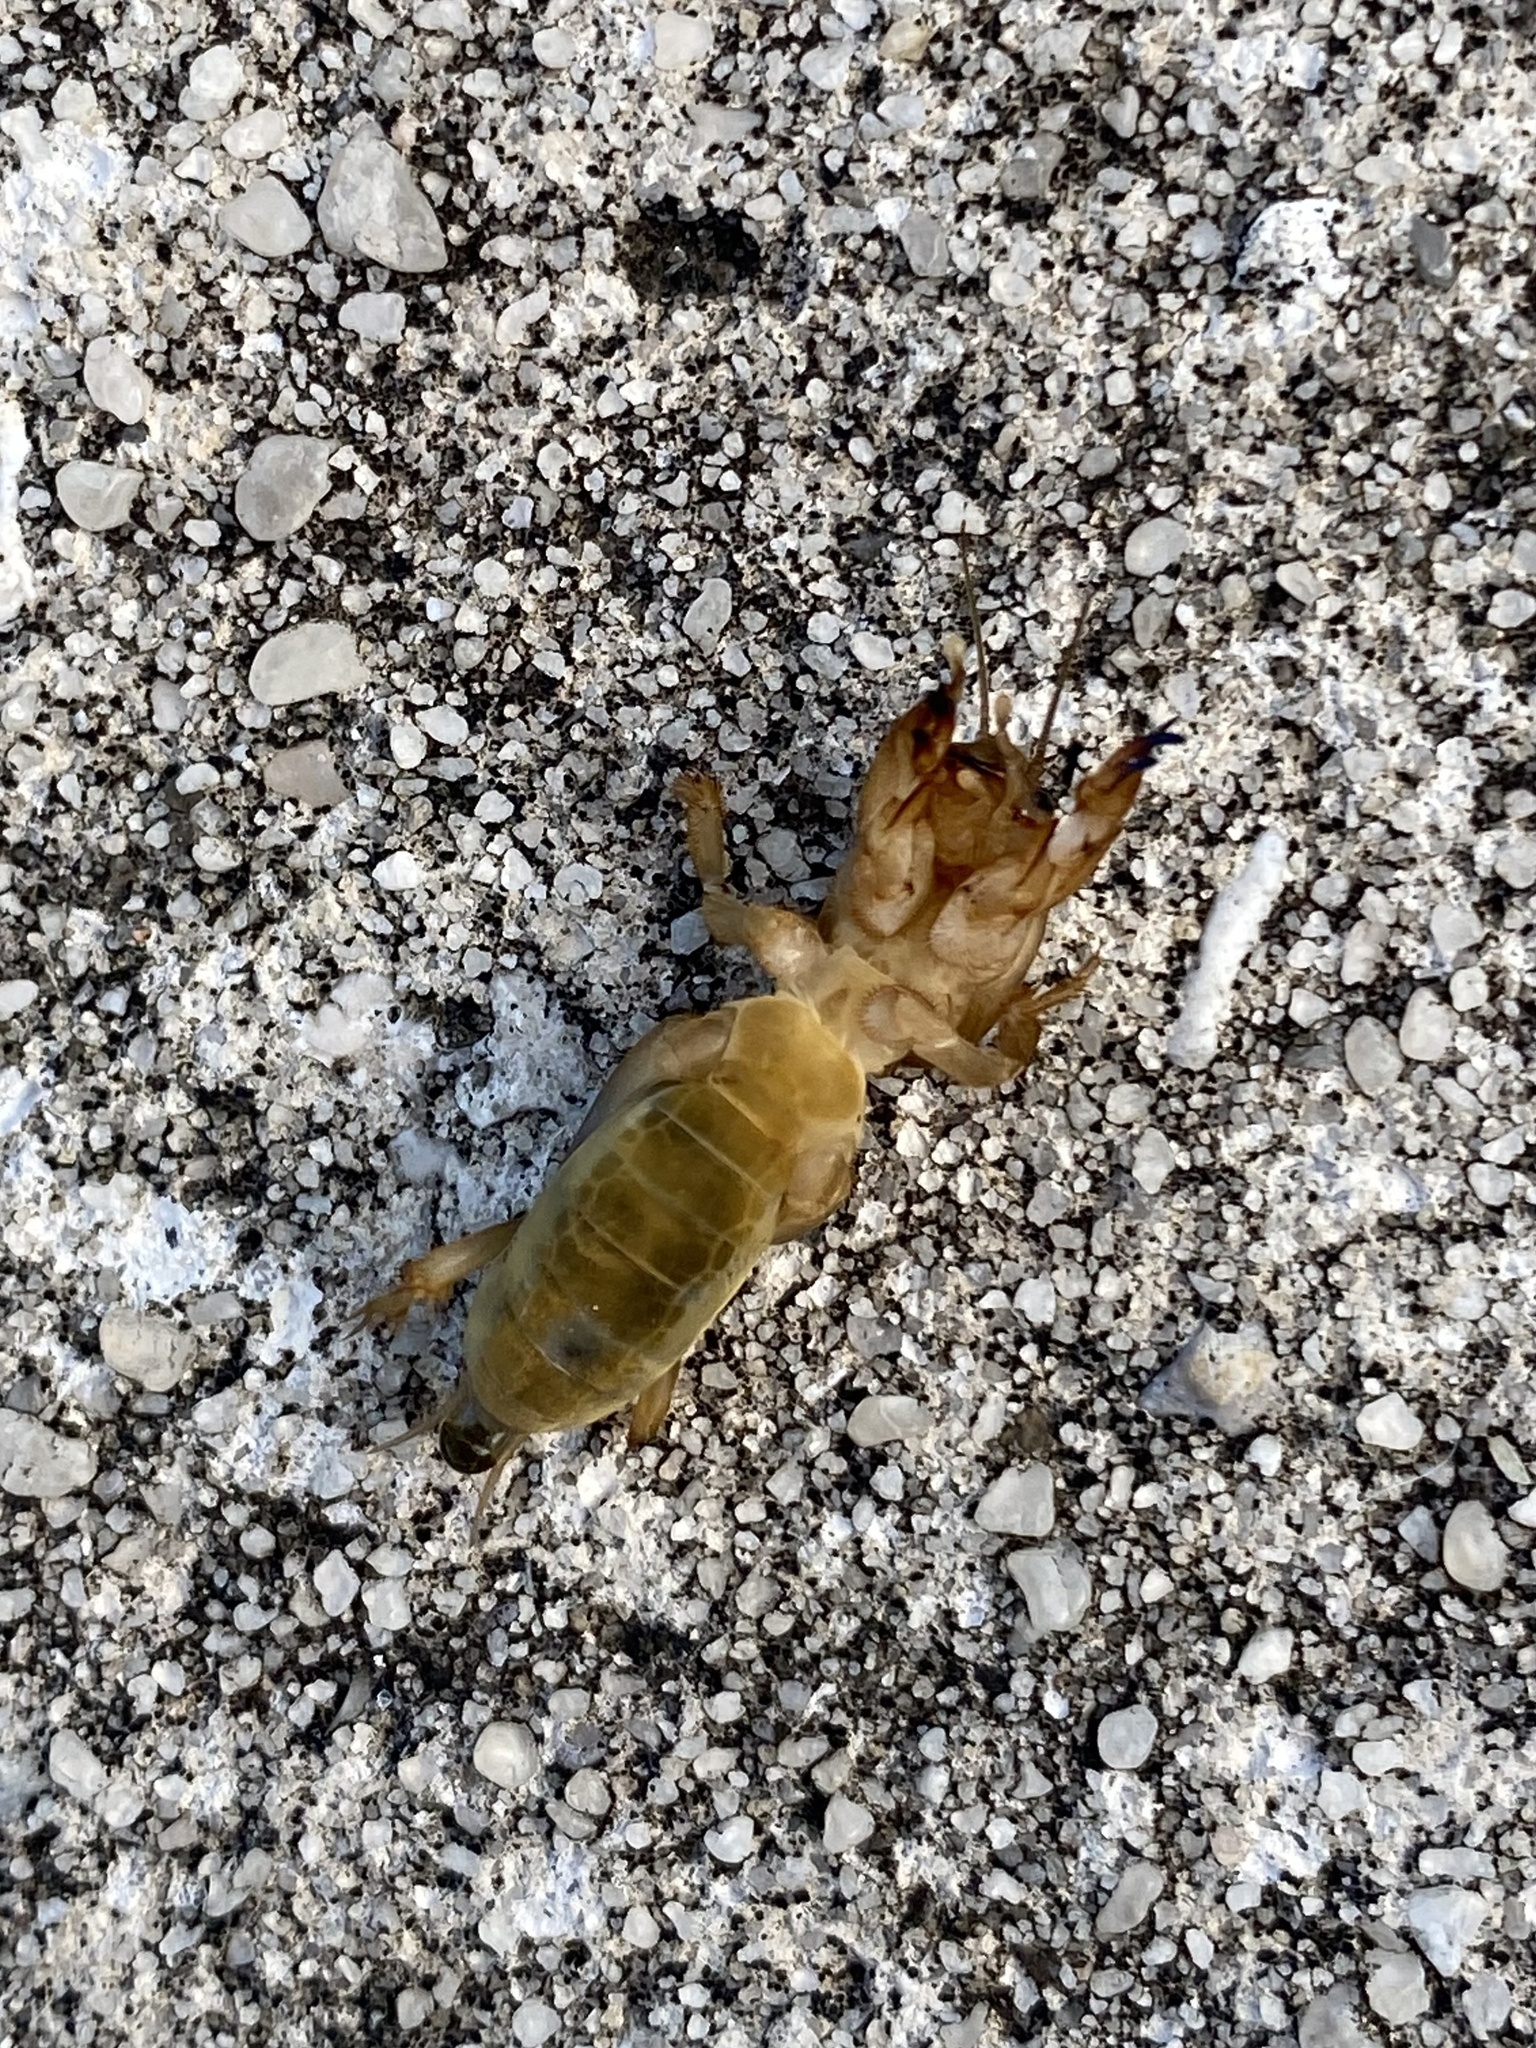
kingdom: Animalia
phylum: Arthropoda
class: Insecta
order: Orthoptera
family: Gryllotalpidae
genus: Neoscapteriscus
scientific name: Neoscapteriscus vicinus
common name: Tawny mole cricket
